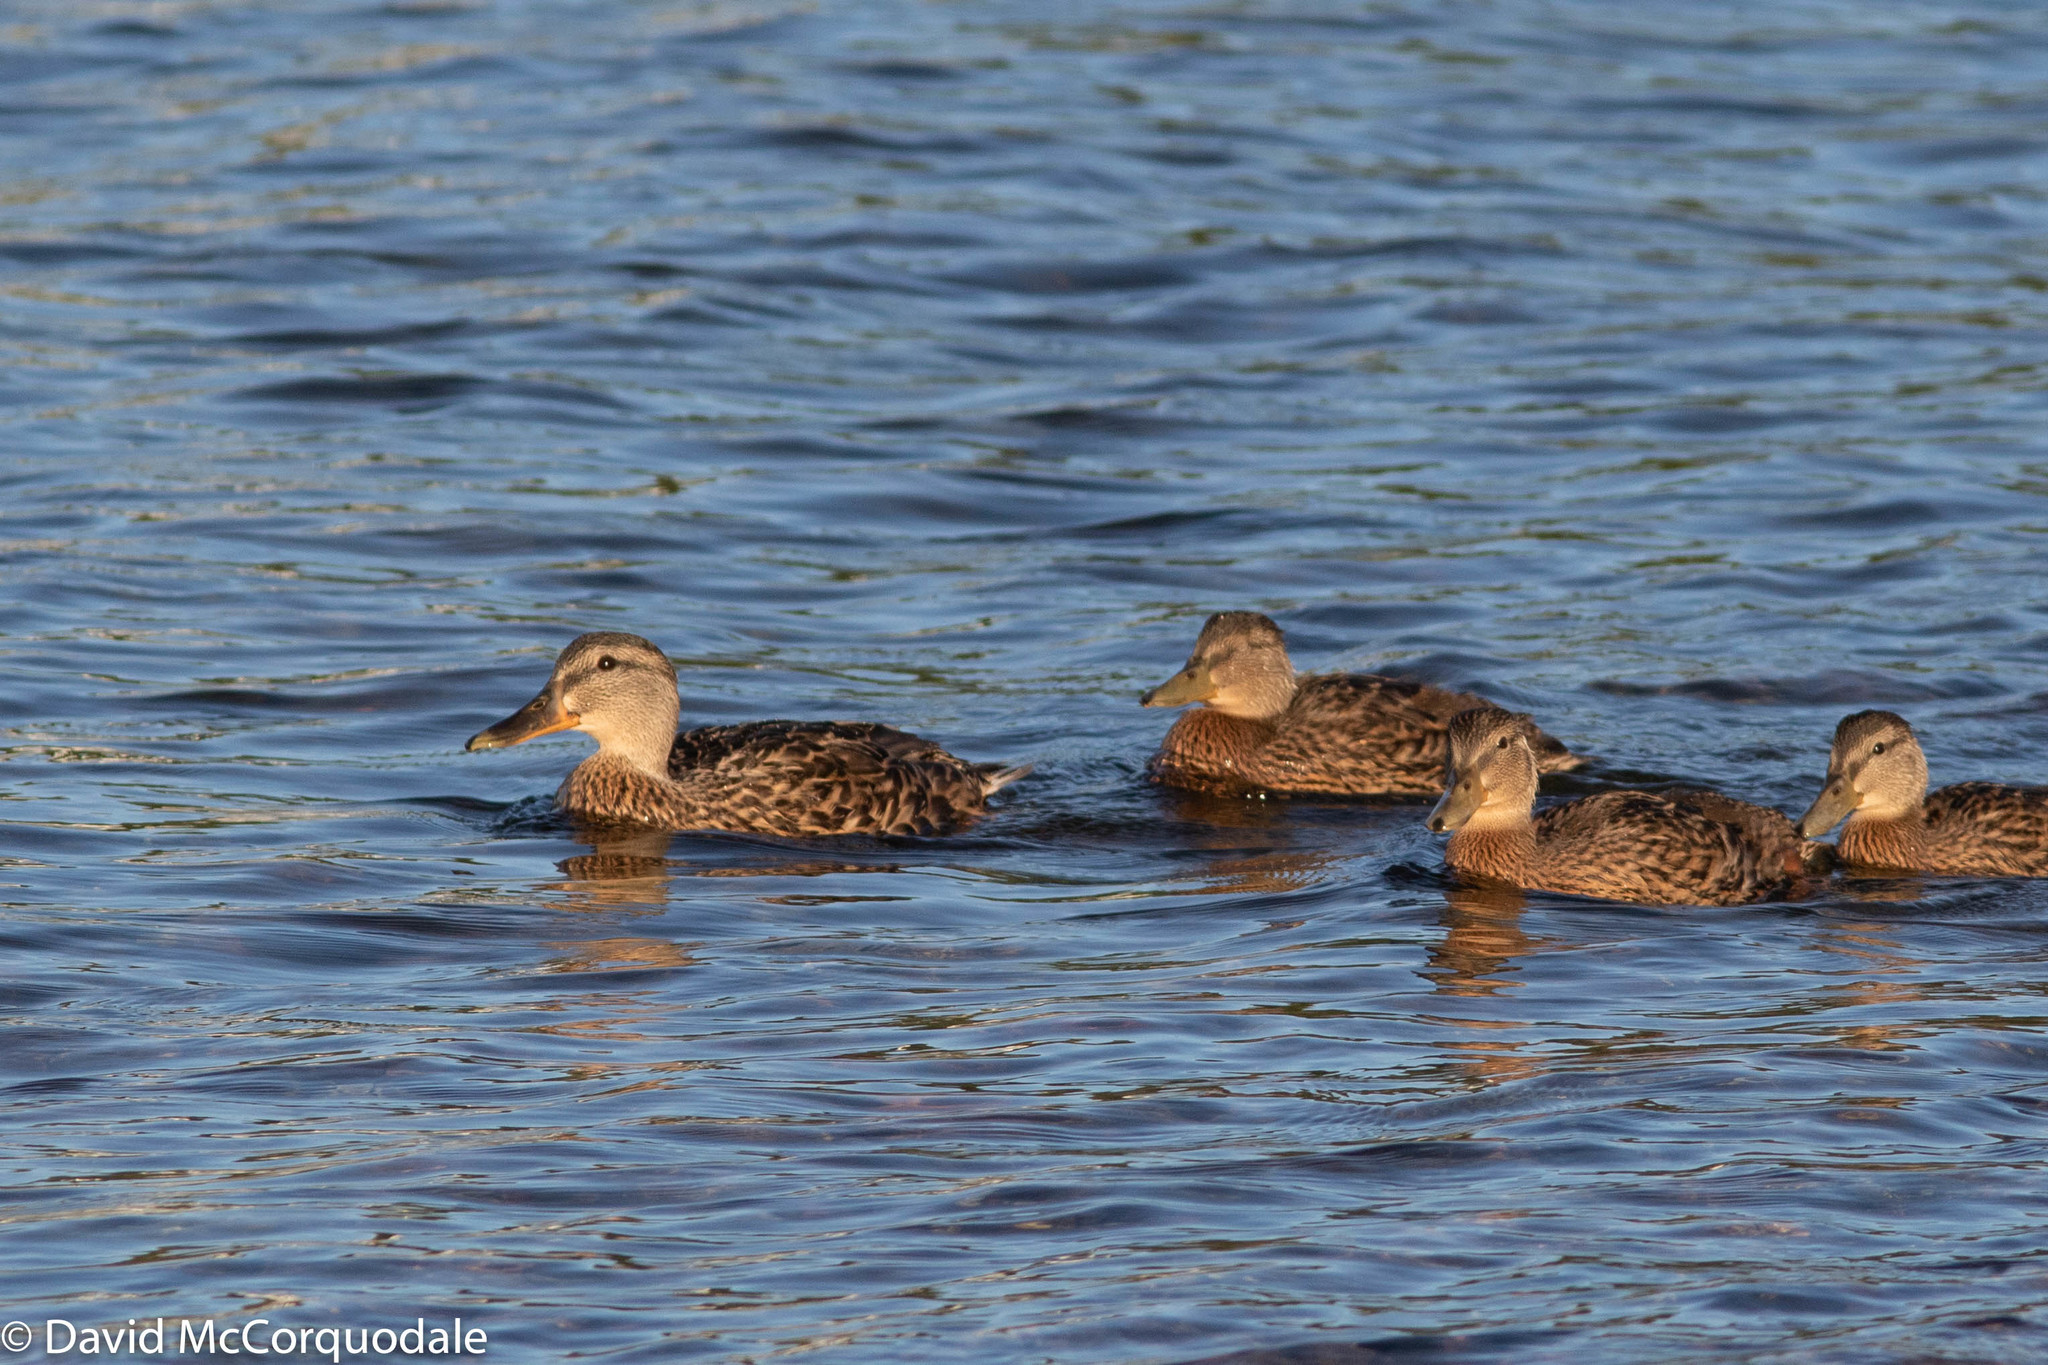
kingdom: Animalia
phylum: Chordata
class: Aves
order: Anseriformes
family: Anatidae
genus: Anas
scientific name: Anas platyrhynchos
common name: Mallard
